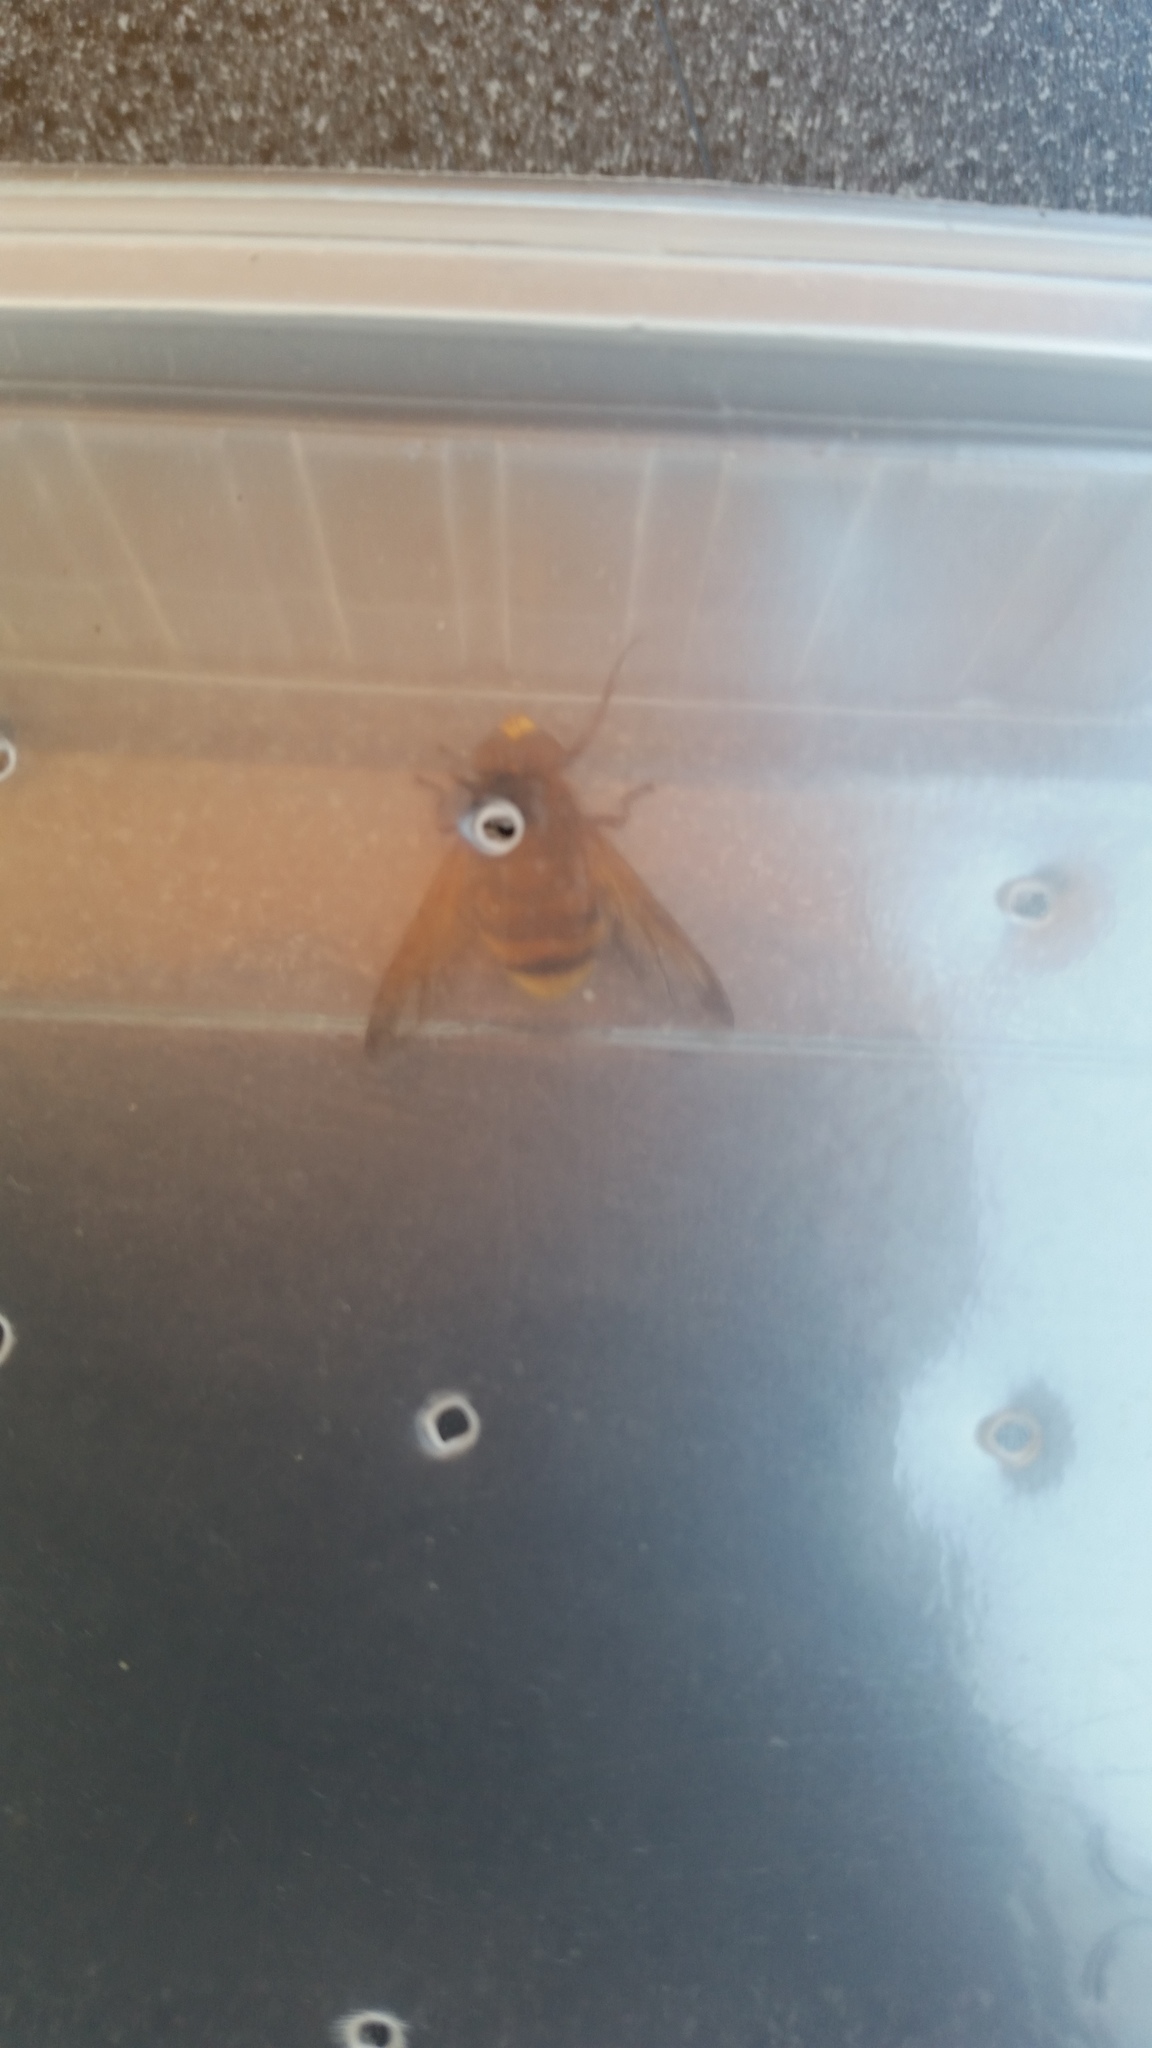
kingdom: Animalia
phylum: Arthropoda
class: Insecta
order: Diptera
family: Syrphidae
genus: Volucella
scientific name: Volucella zonaria
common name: Hornet hoverfly
